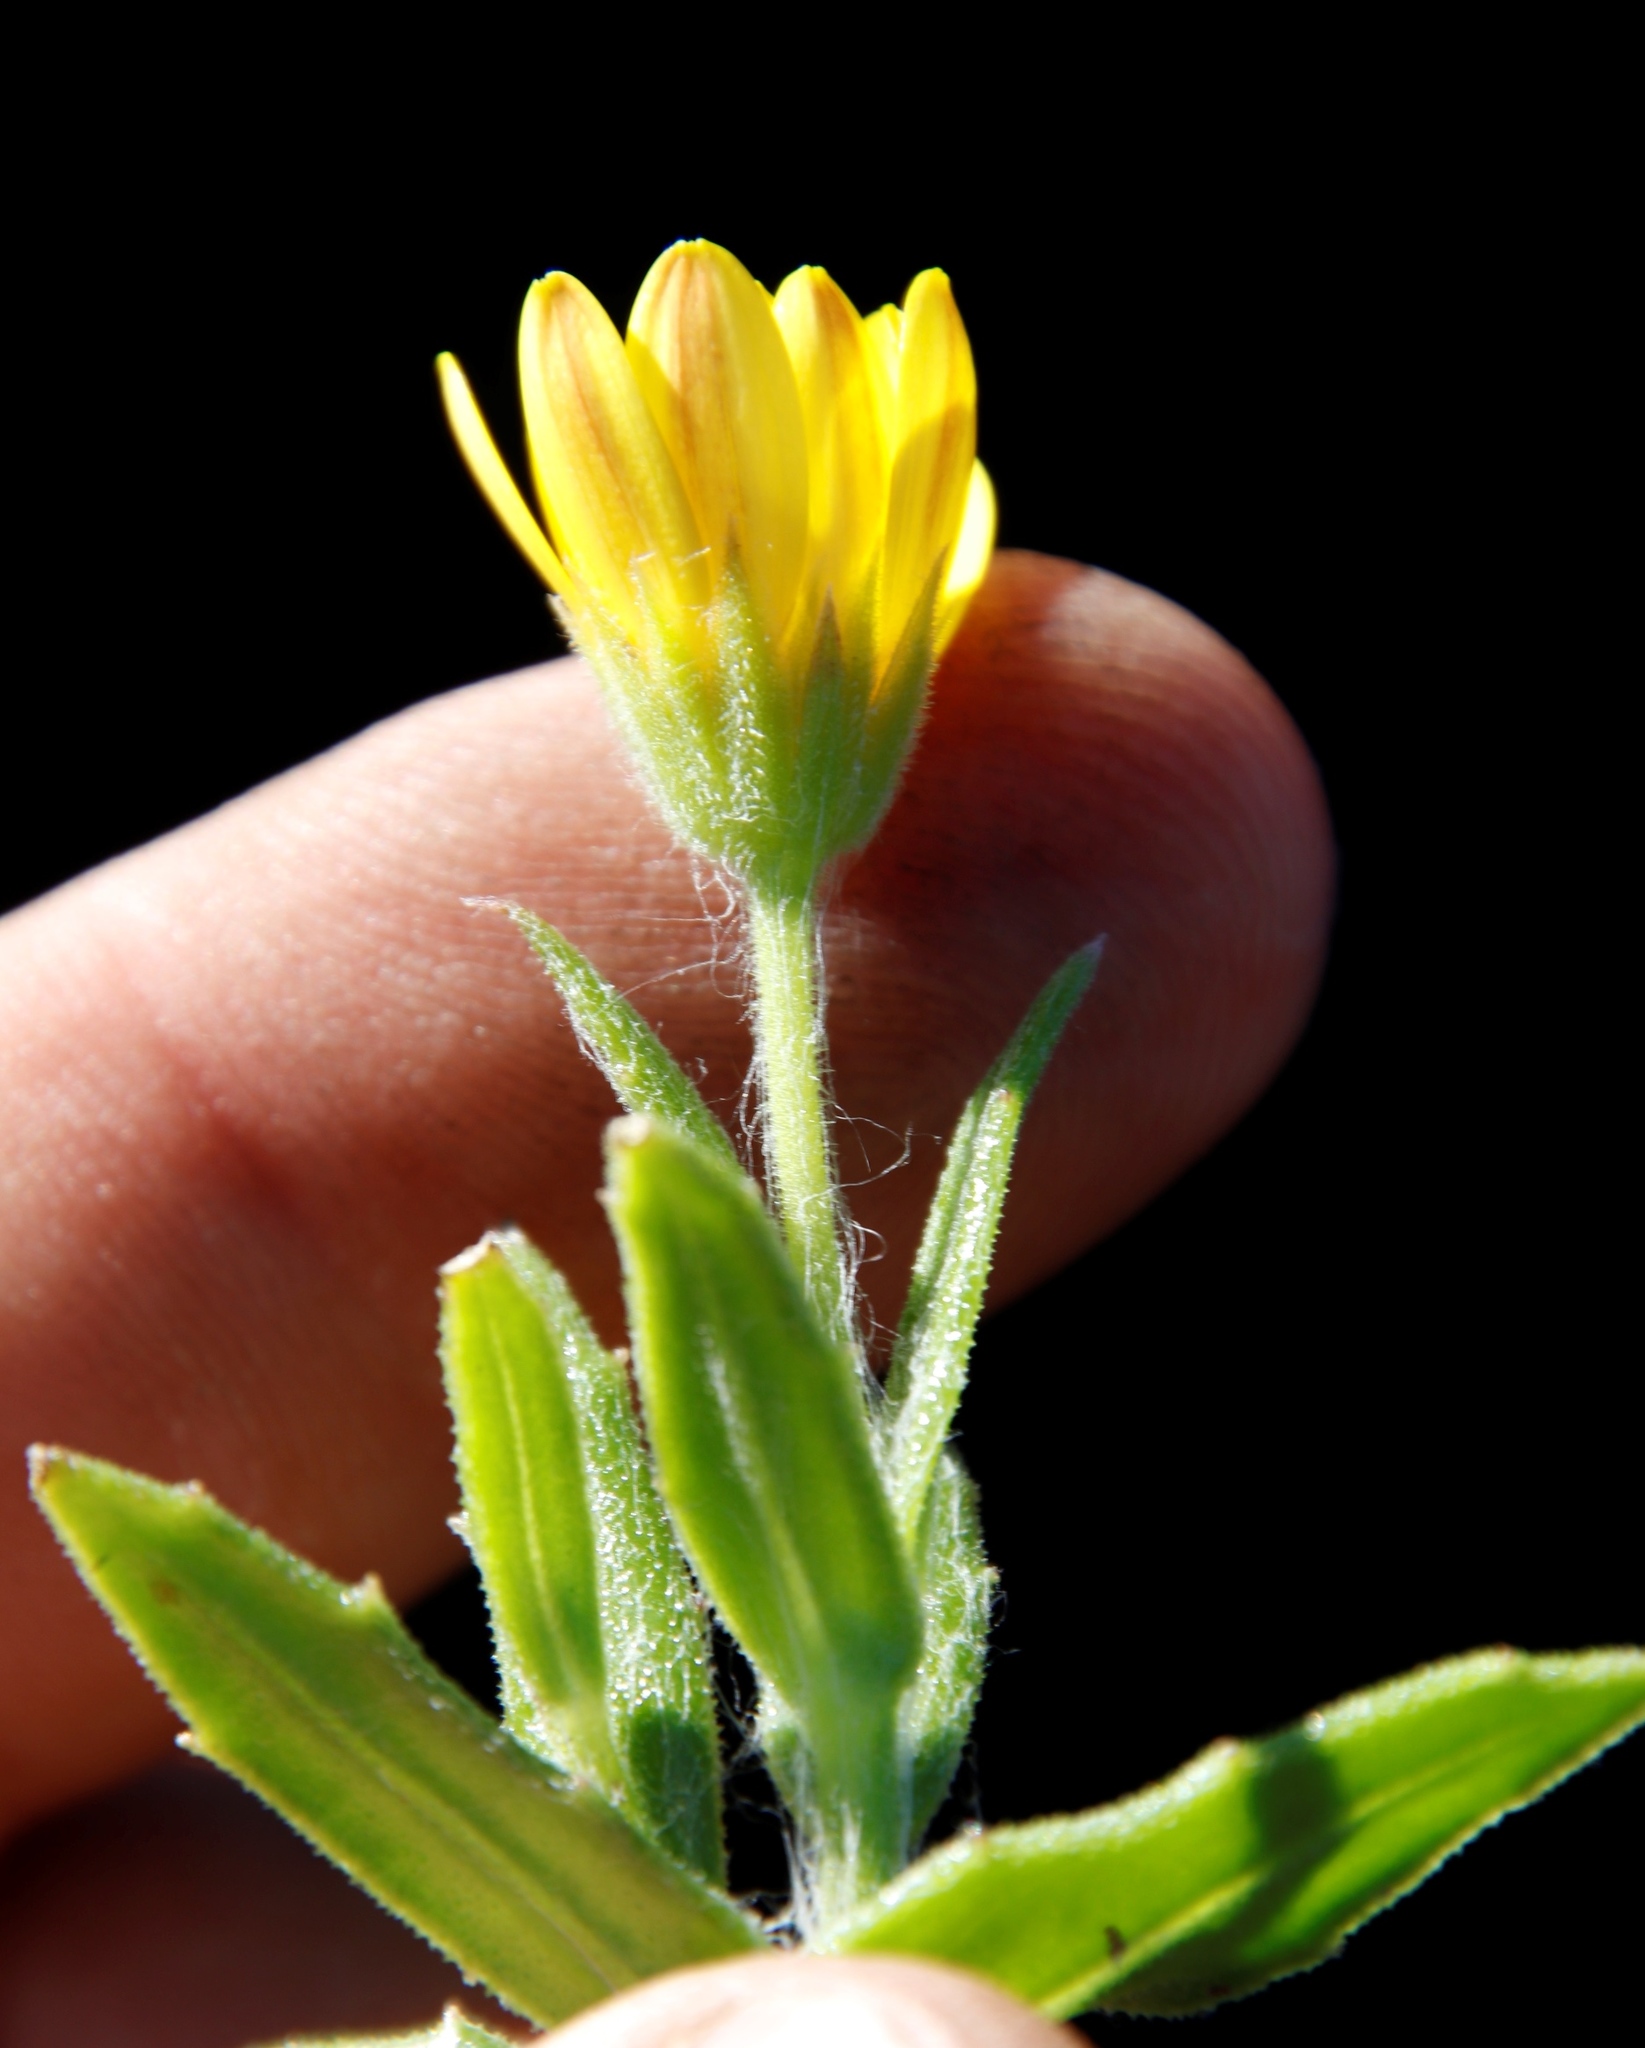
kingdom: Plantae
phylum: Tracheophyta
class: Magnoliopsida
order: Asterales
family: Asteraceae
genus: Osteospermum
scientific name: Osteospermum ilicifolium
